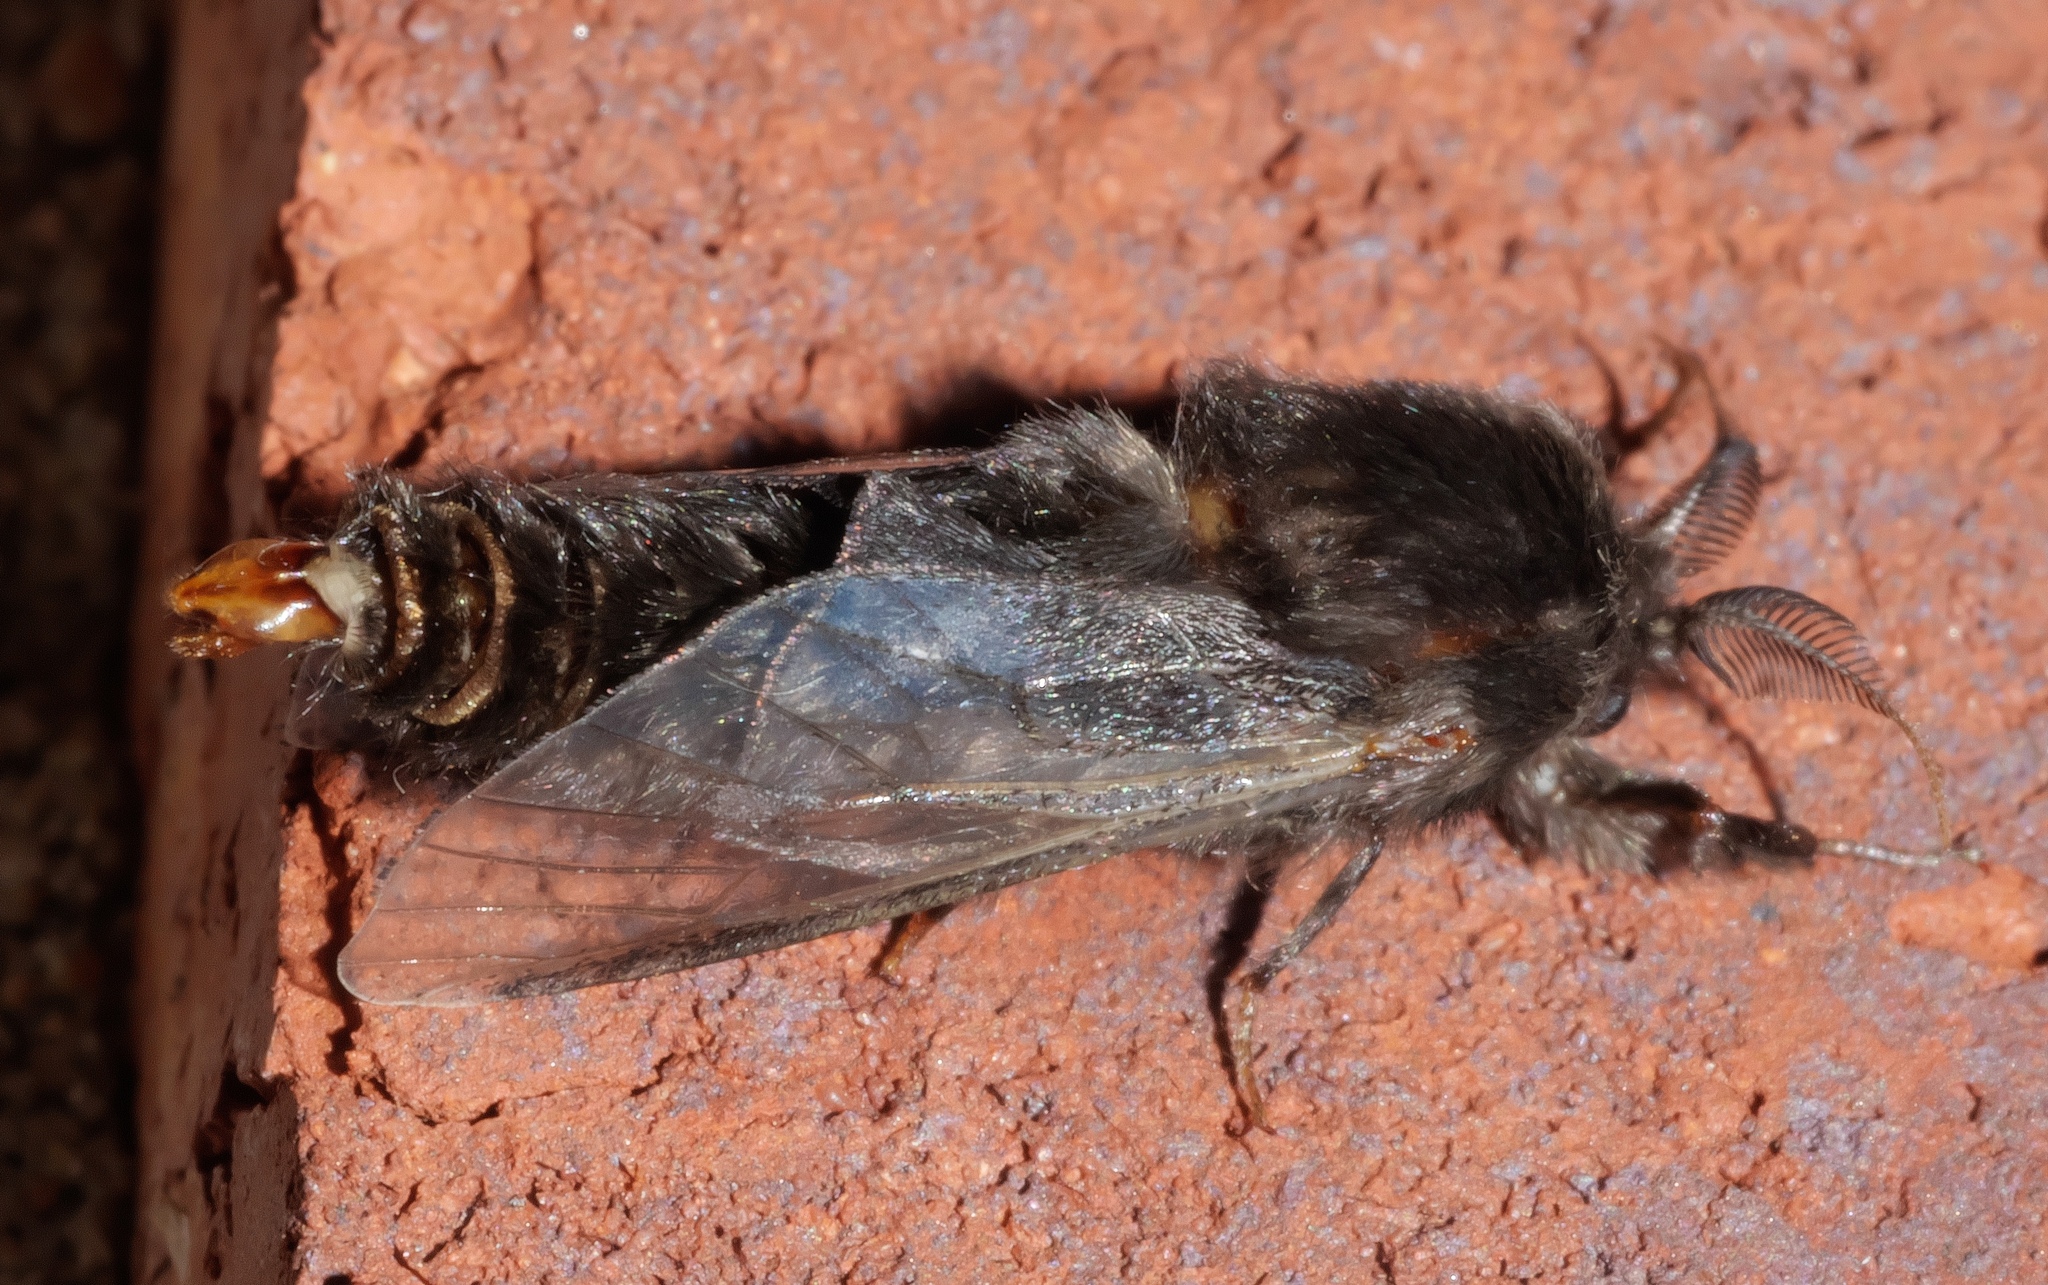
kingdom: Animalia
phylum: Arthropoda
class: Insecta
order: Lepidoptera
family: Psychidae
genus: Thyridopteryx
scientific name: Thyridopteryx ephemeraeformis
